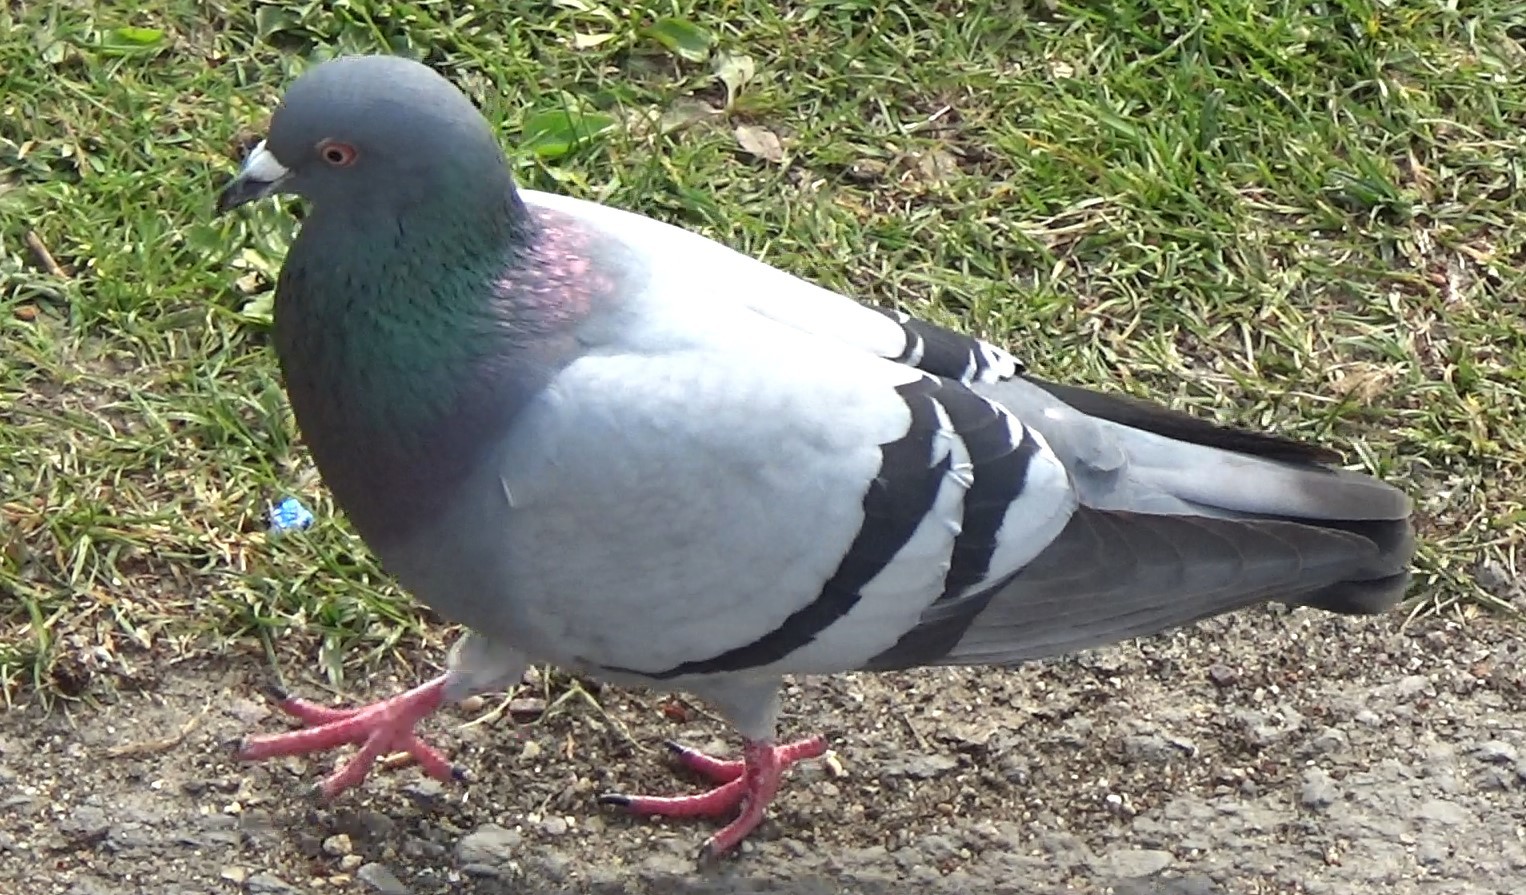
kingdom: Animalia
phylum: Chordata
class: Aves
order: Columbiformes
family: Columbidae
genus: Columba
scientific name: Columba livia
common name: Rock pigeon
